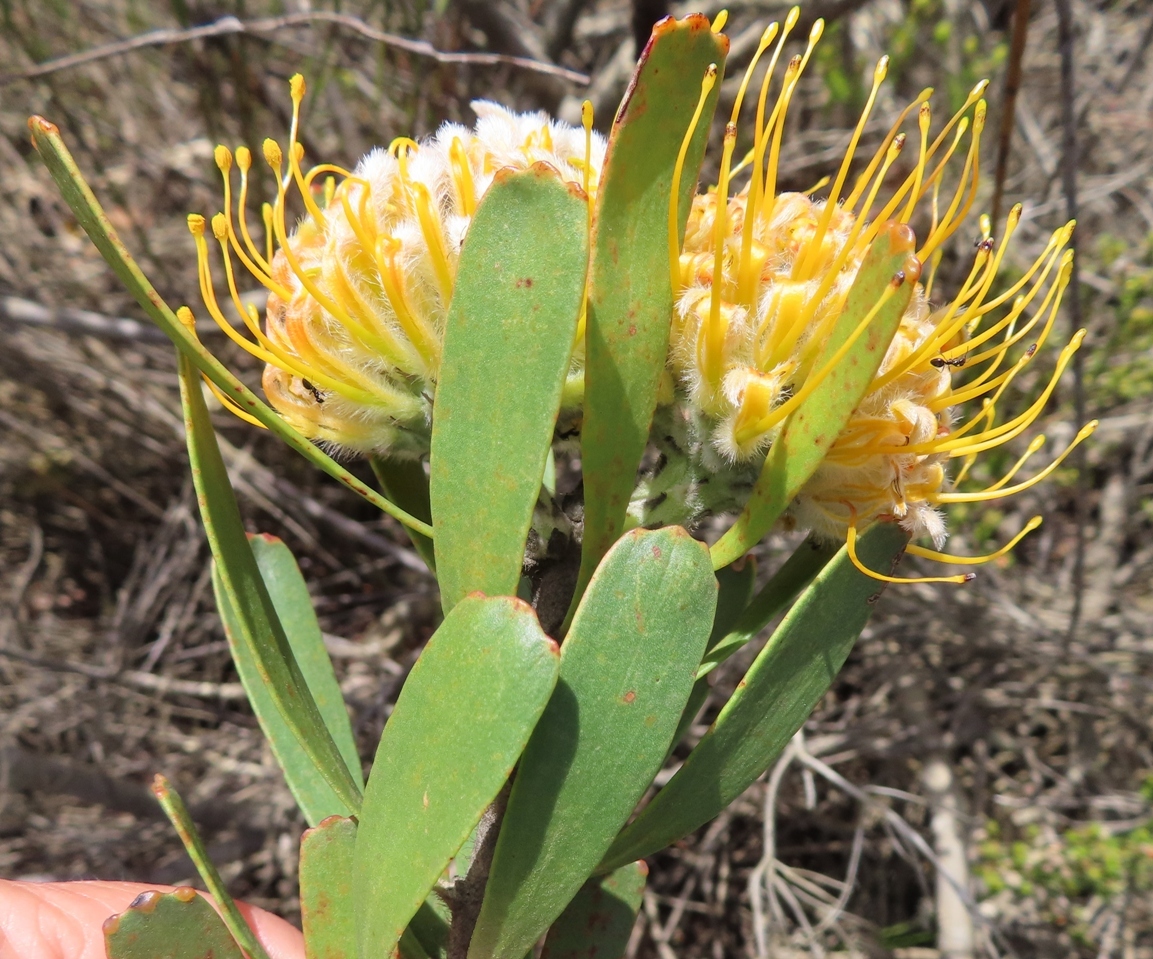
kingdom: Plantae
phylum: Tracheophyta
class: Magnoliopsida
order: Proteales
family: Proteaceae
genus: Leucospermum
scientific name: Leucospermum truncatum
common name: Limestone pincushion
